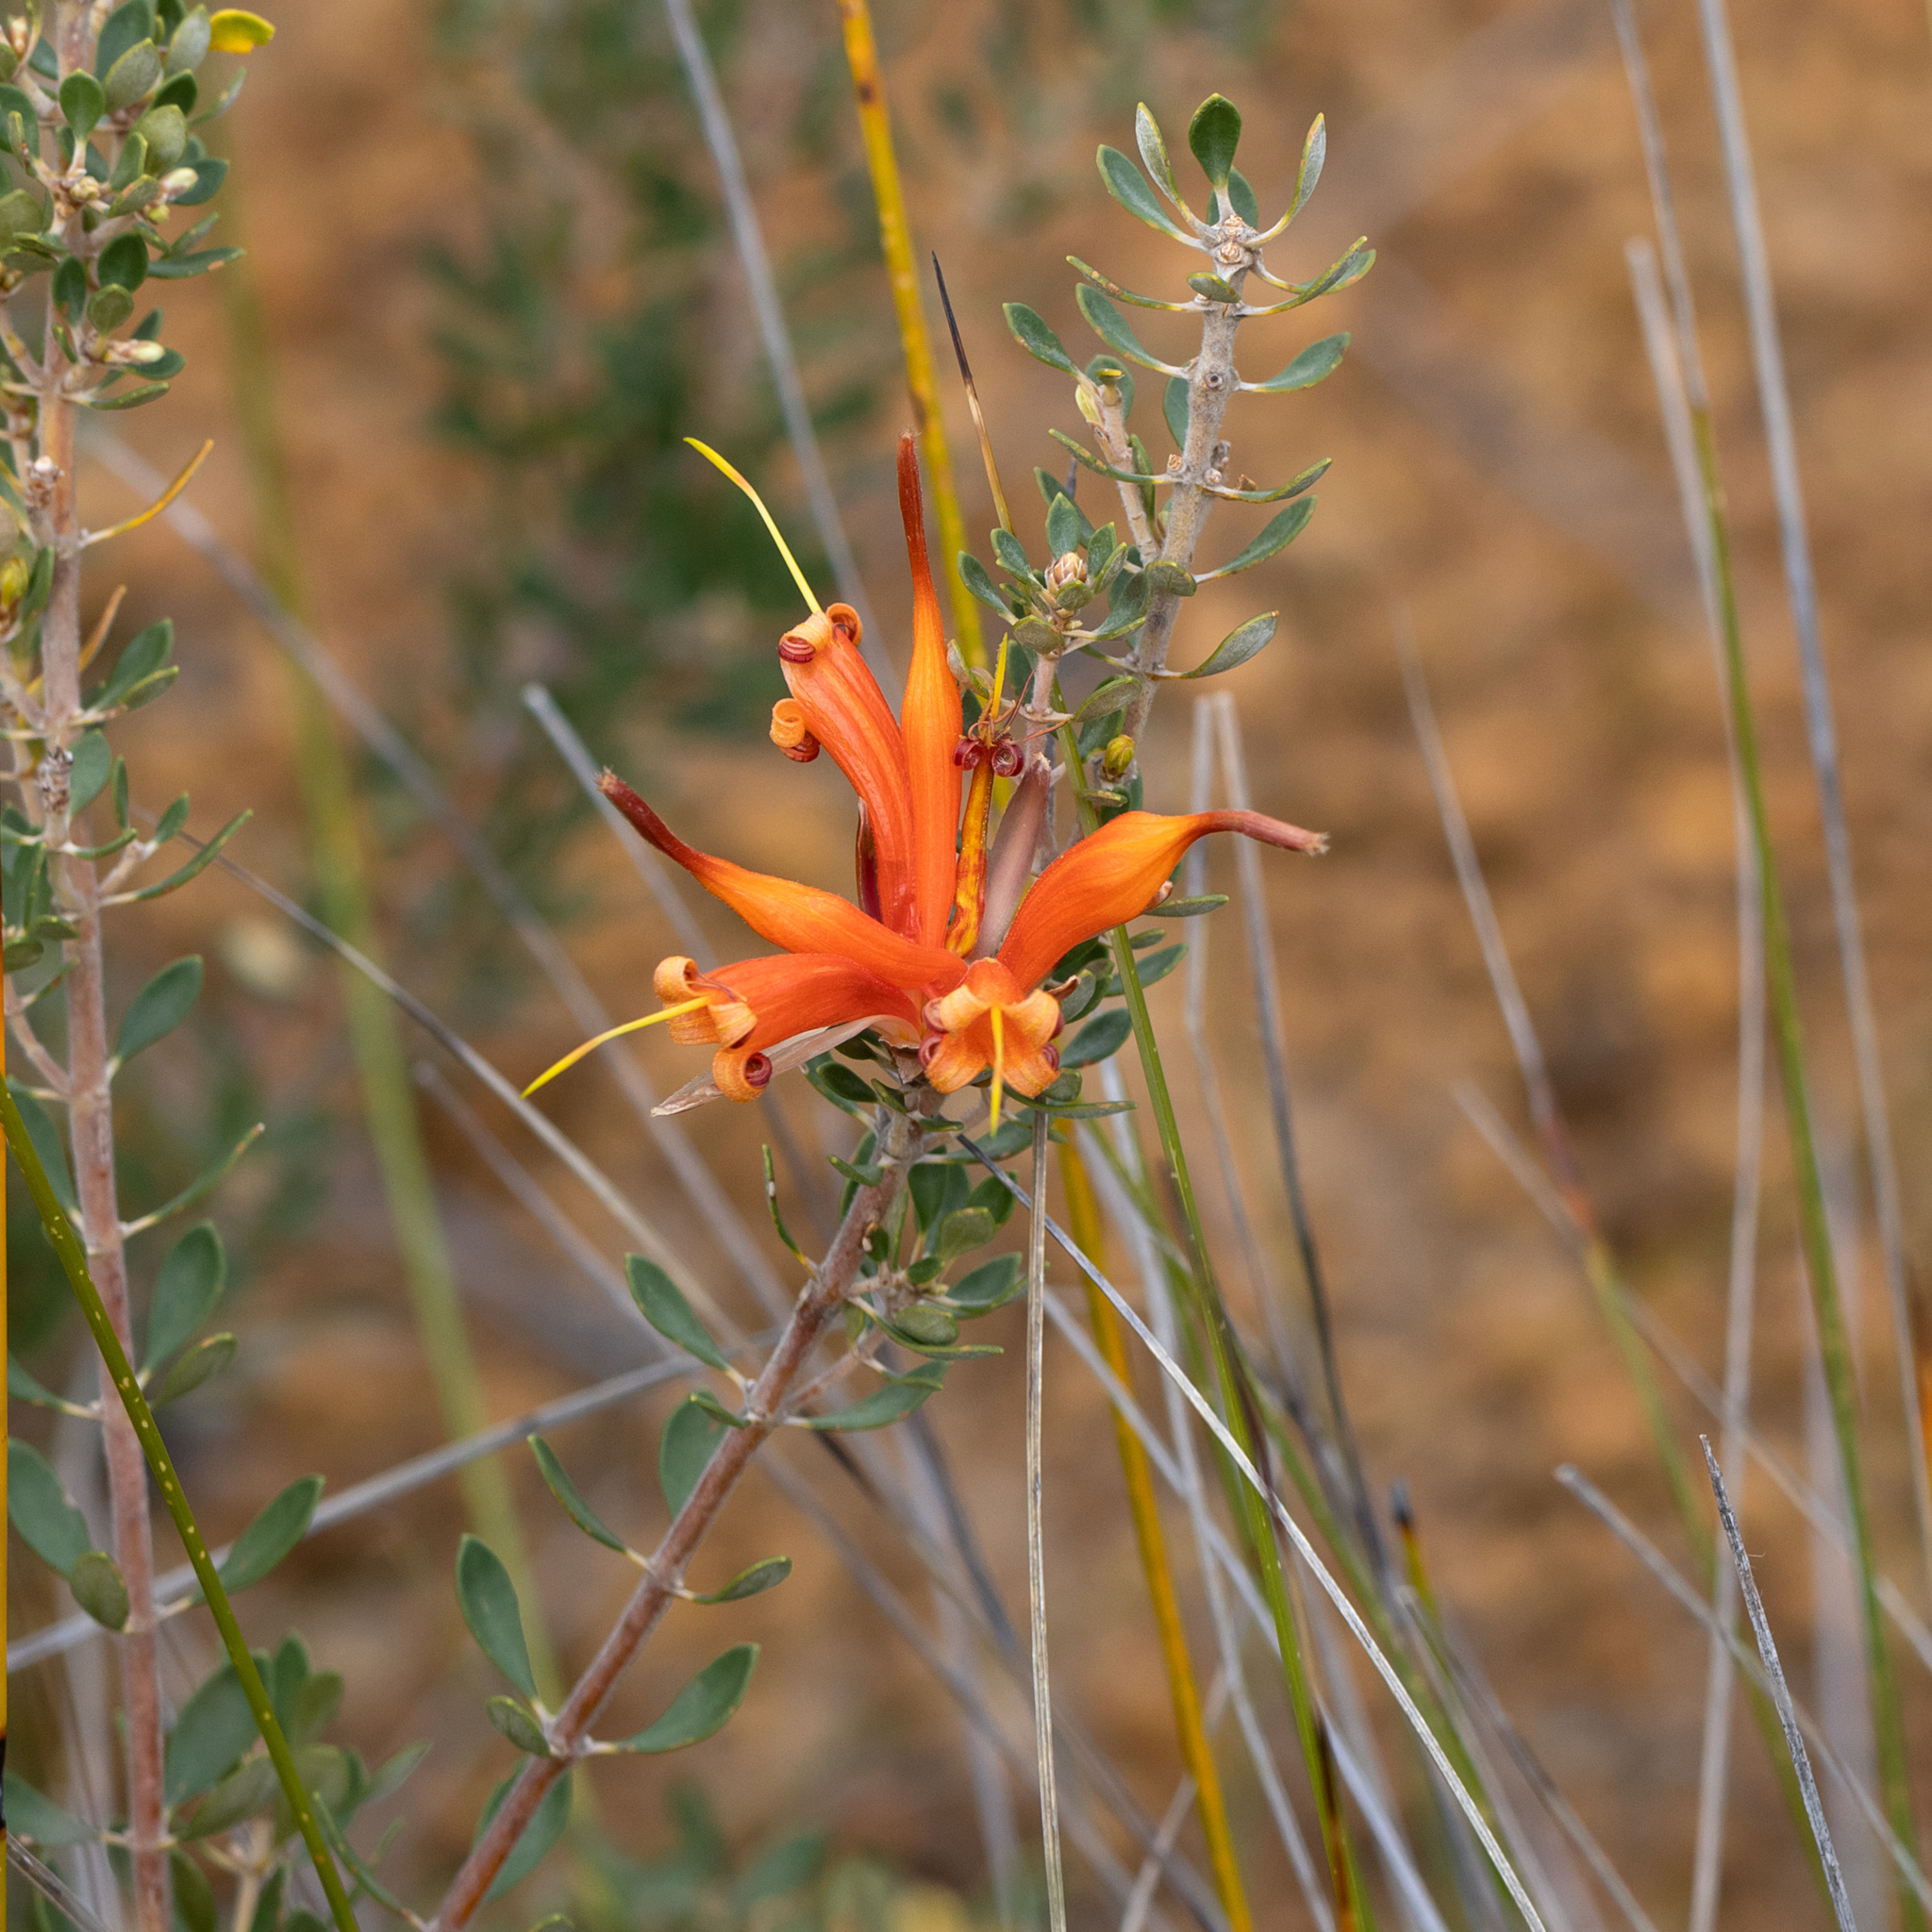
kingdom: Plantae
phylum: Tracheophyta
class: Magnoliopsida
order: Proteales
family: Proteaceae
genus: Lambertia
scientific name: Lambertia inermis
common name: Chittick
